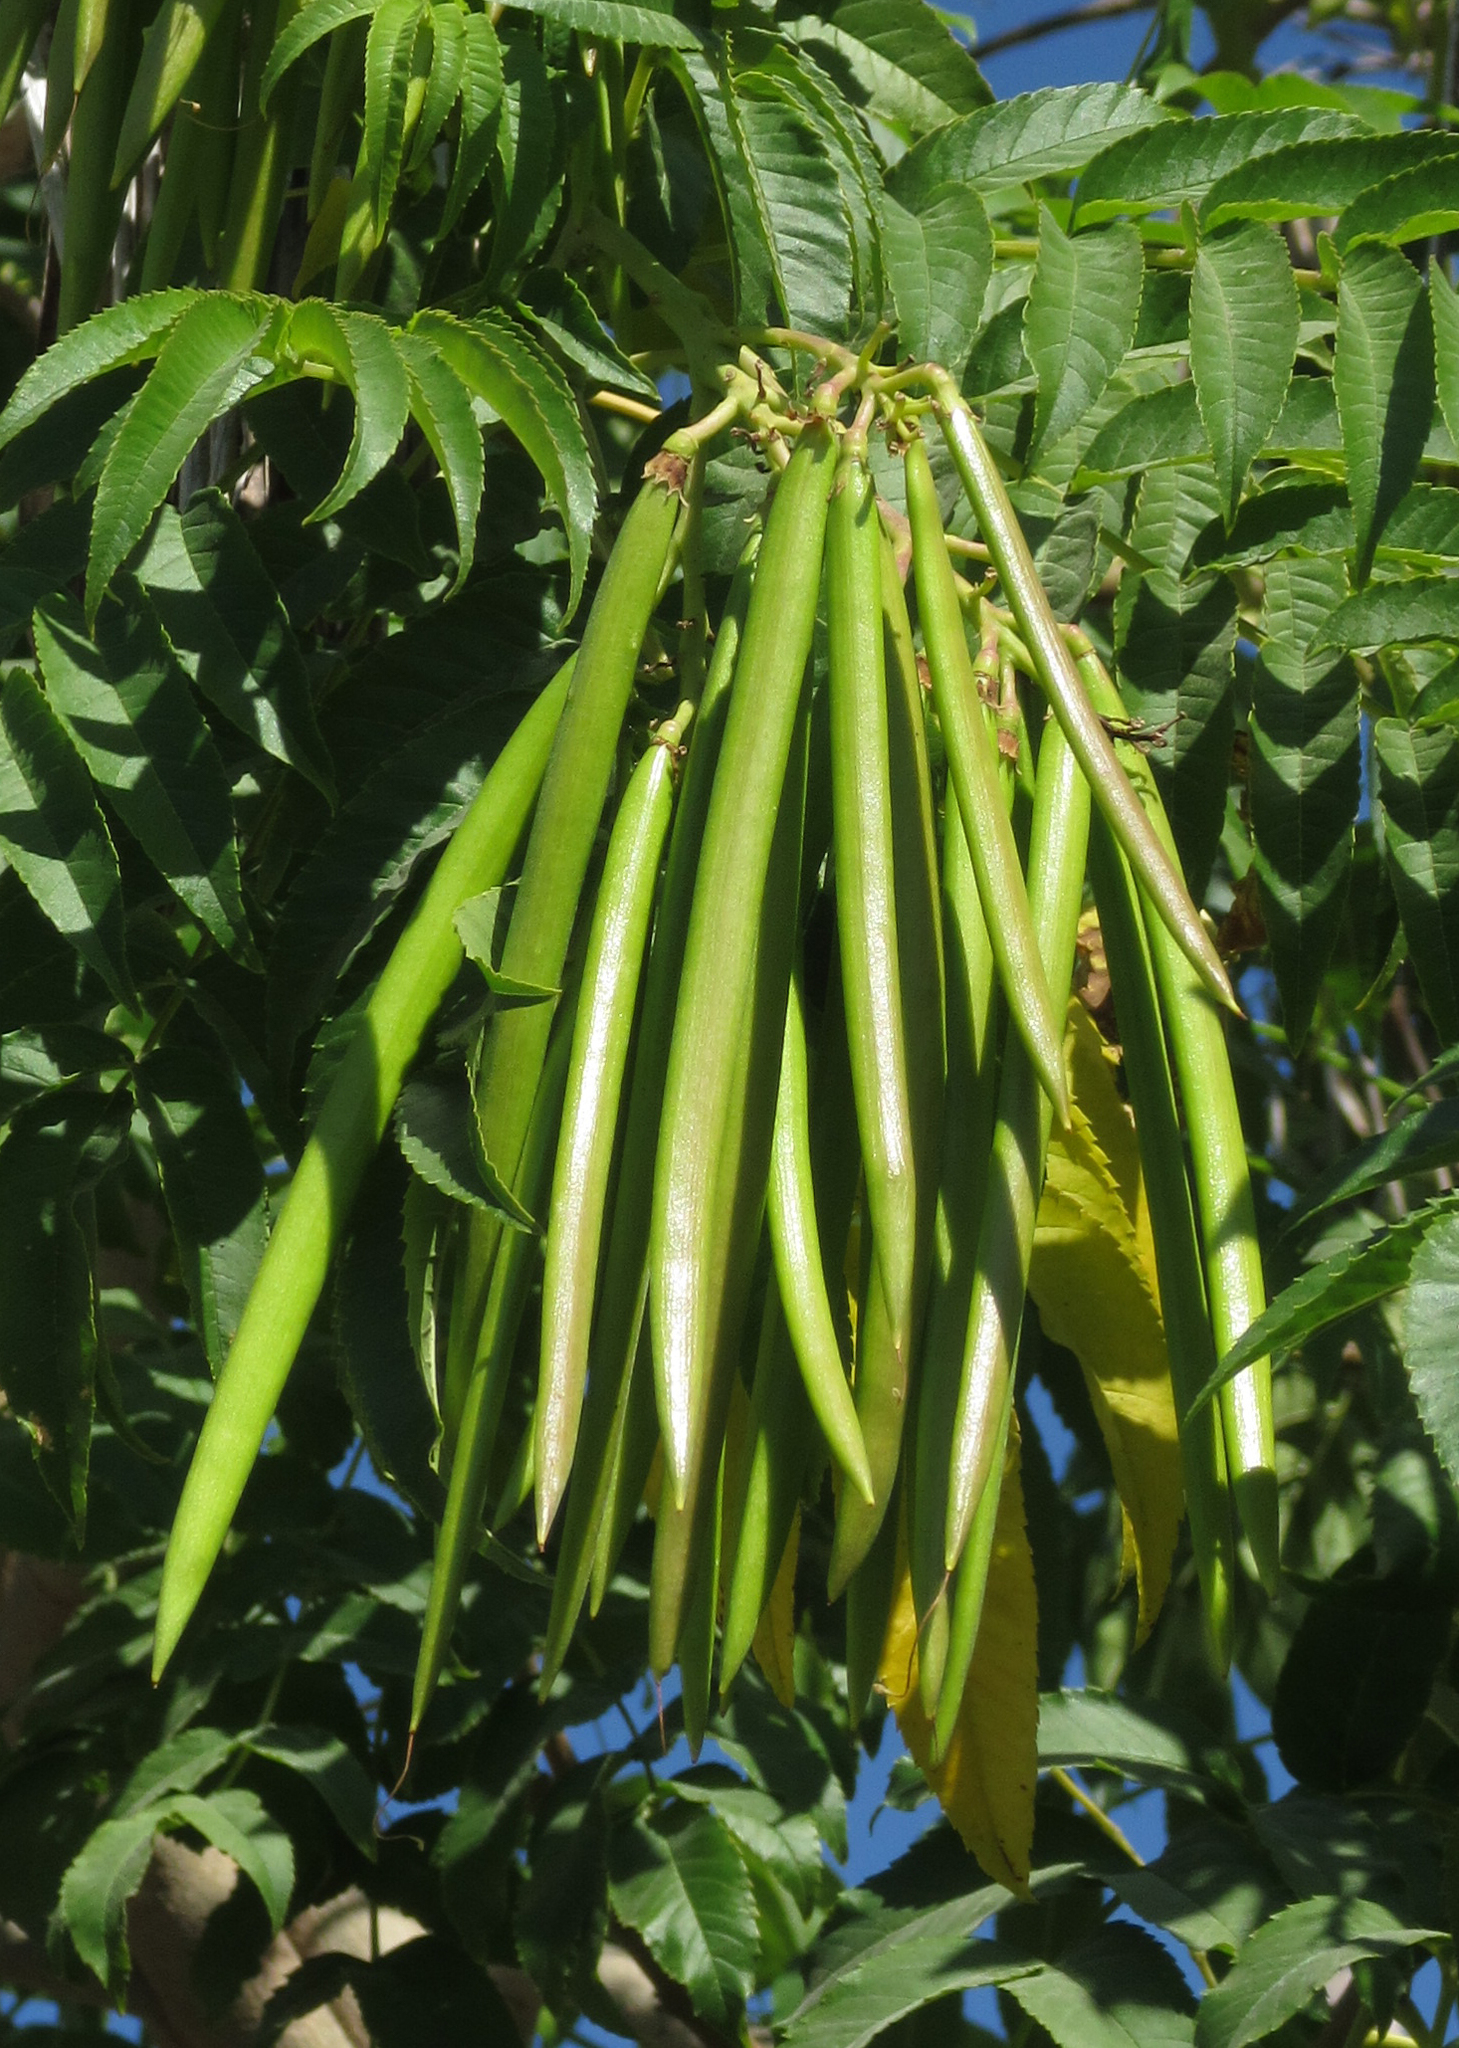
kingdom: Plantae
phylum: Tracheophyta
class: Magnoliopsida
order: Lamiales
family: Bignoniaceae
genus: Tecoma
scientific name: Tecoma stans
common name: Yellow trumpetbush
